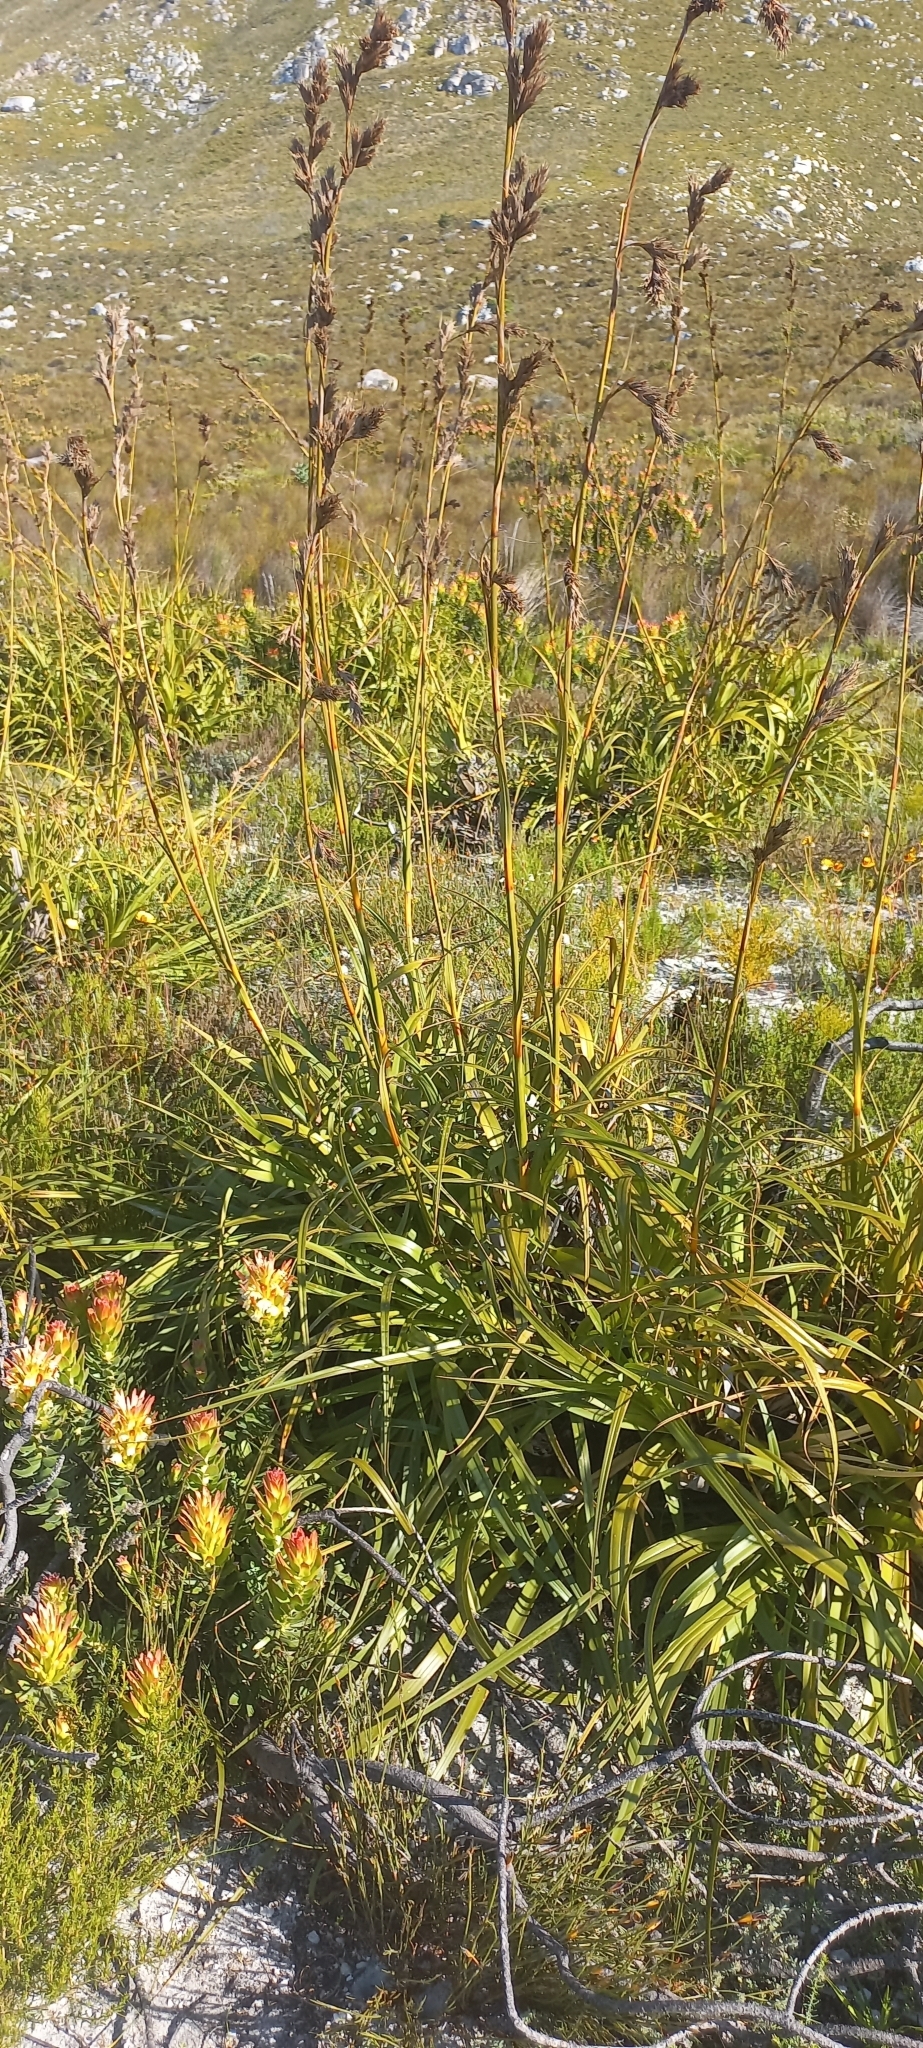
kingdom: Plantae
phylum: Tracheophyta
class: Liliopsida
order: Poales
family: Cyperaceae
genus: Tetraria
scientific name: Tetraria thermalis
